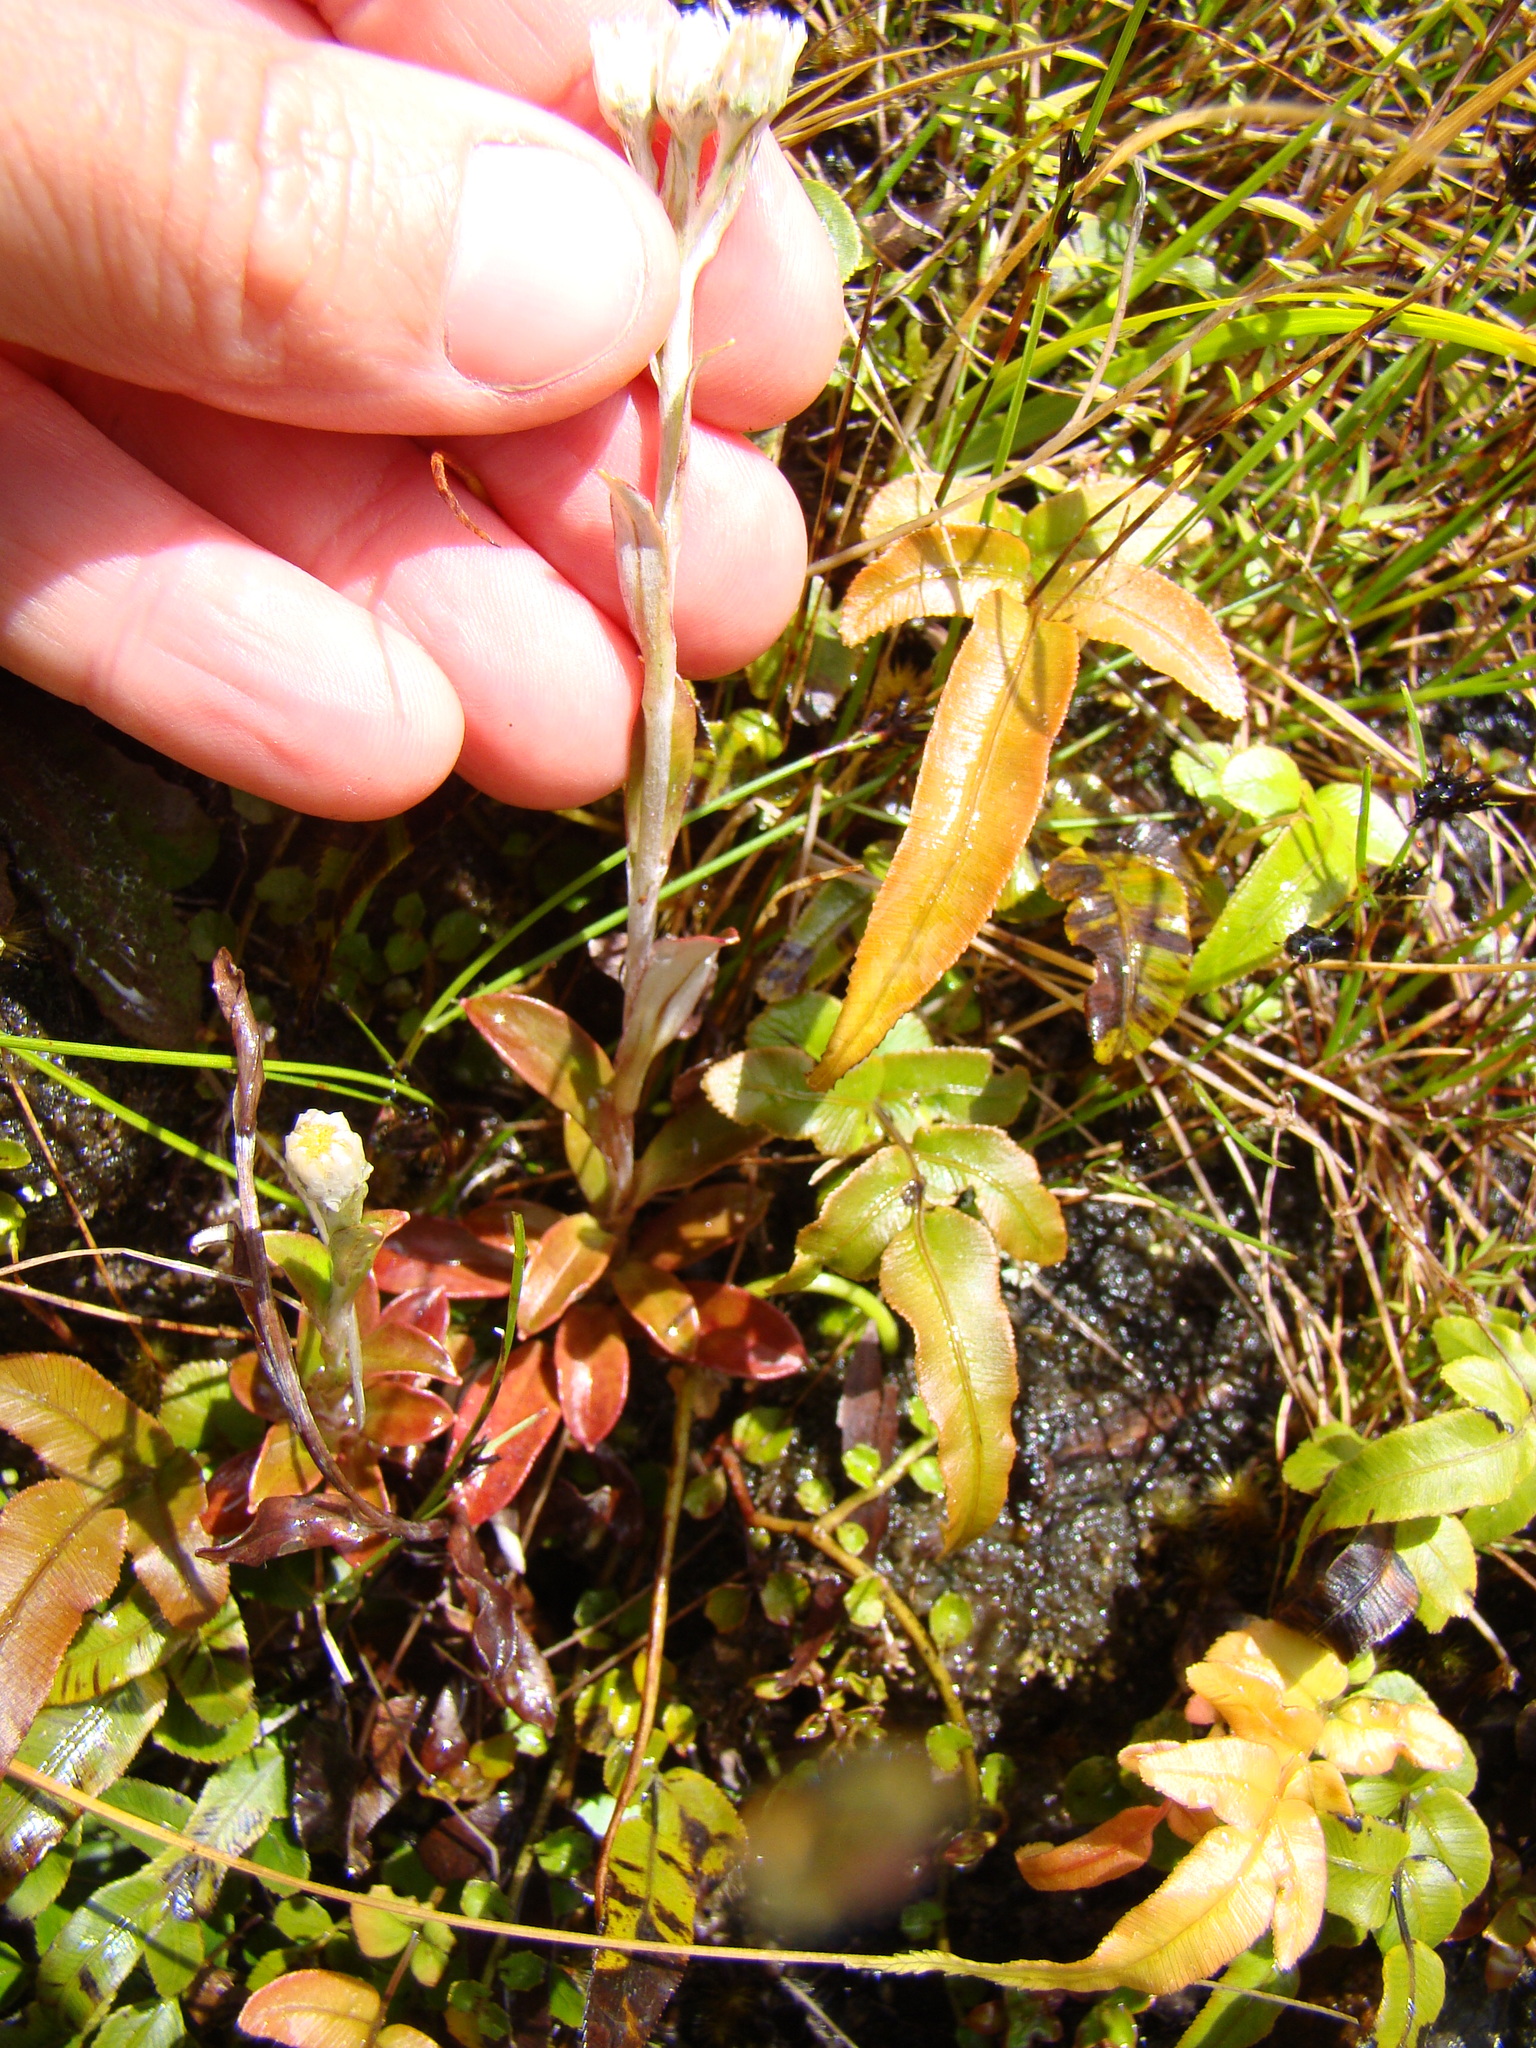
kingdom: Plantae
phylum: Tracheophyta
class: Magnoliopsida
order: Asterales
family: Asteraceae
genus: Anaphalioides
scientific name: Anaphalioides trinervis
